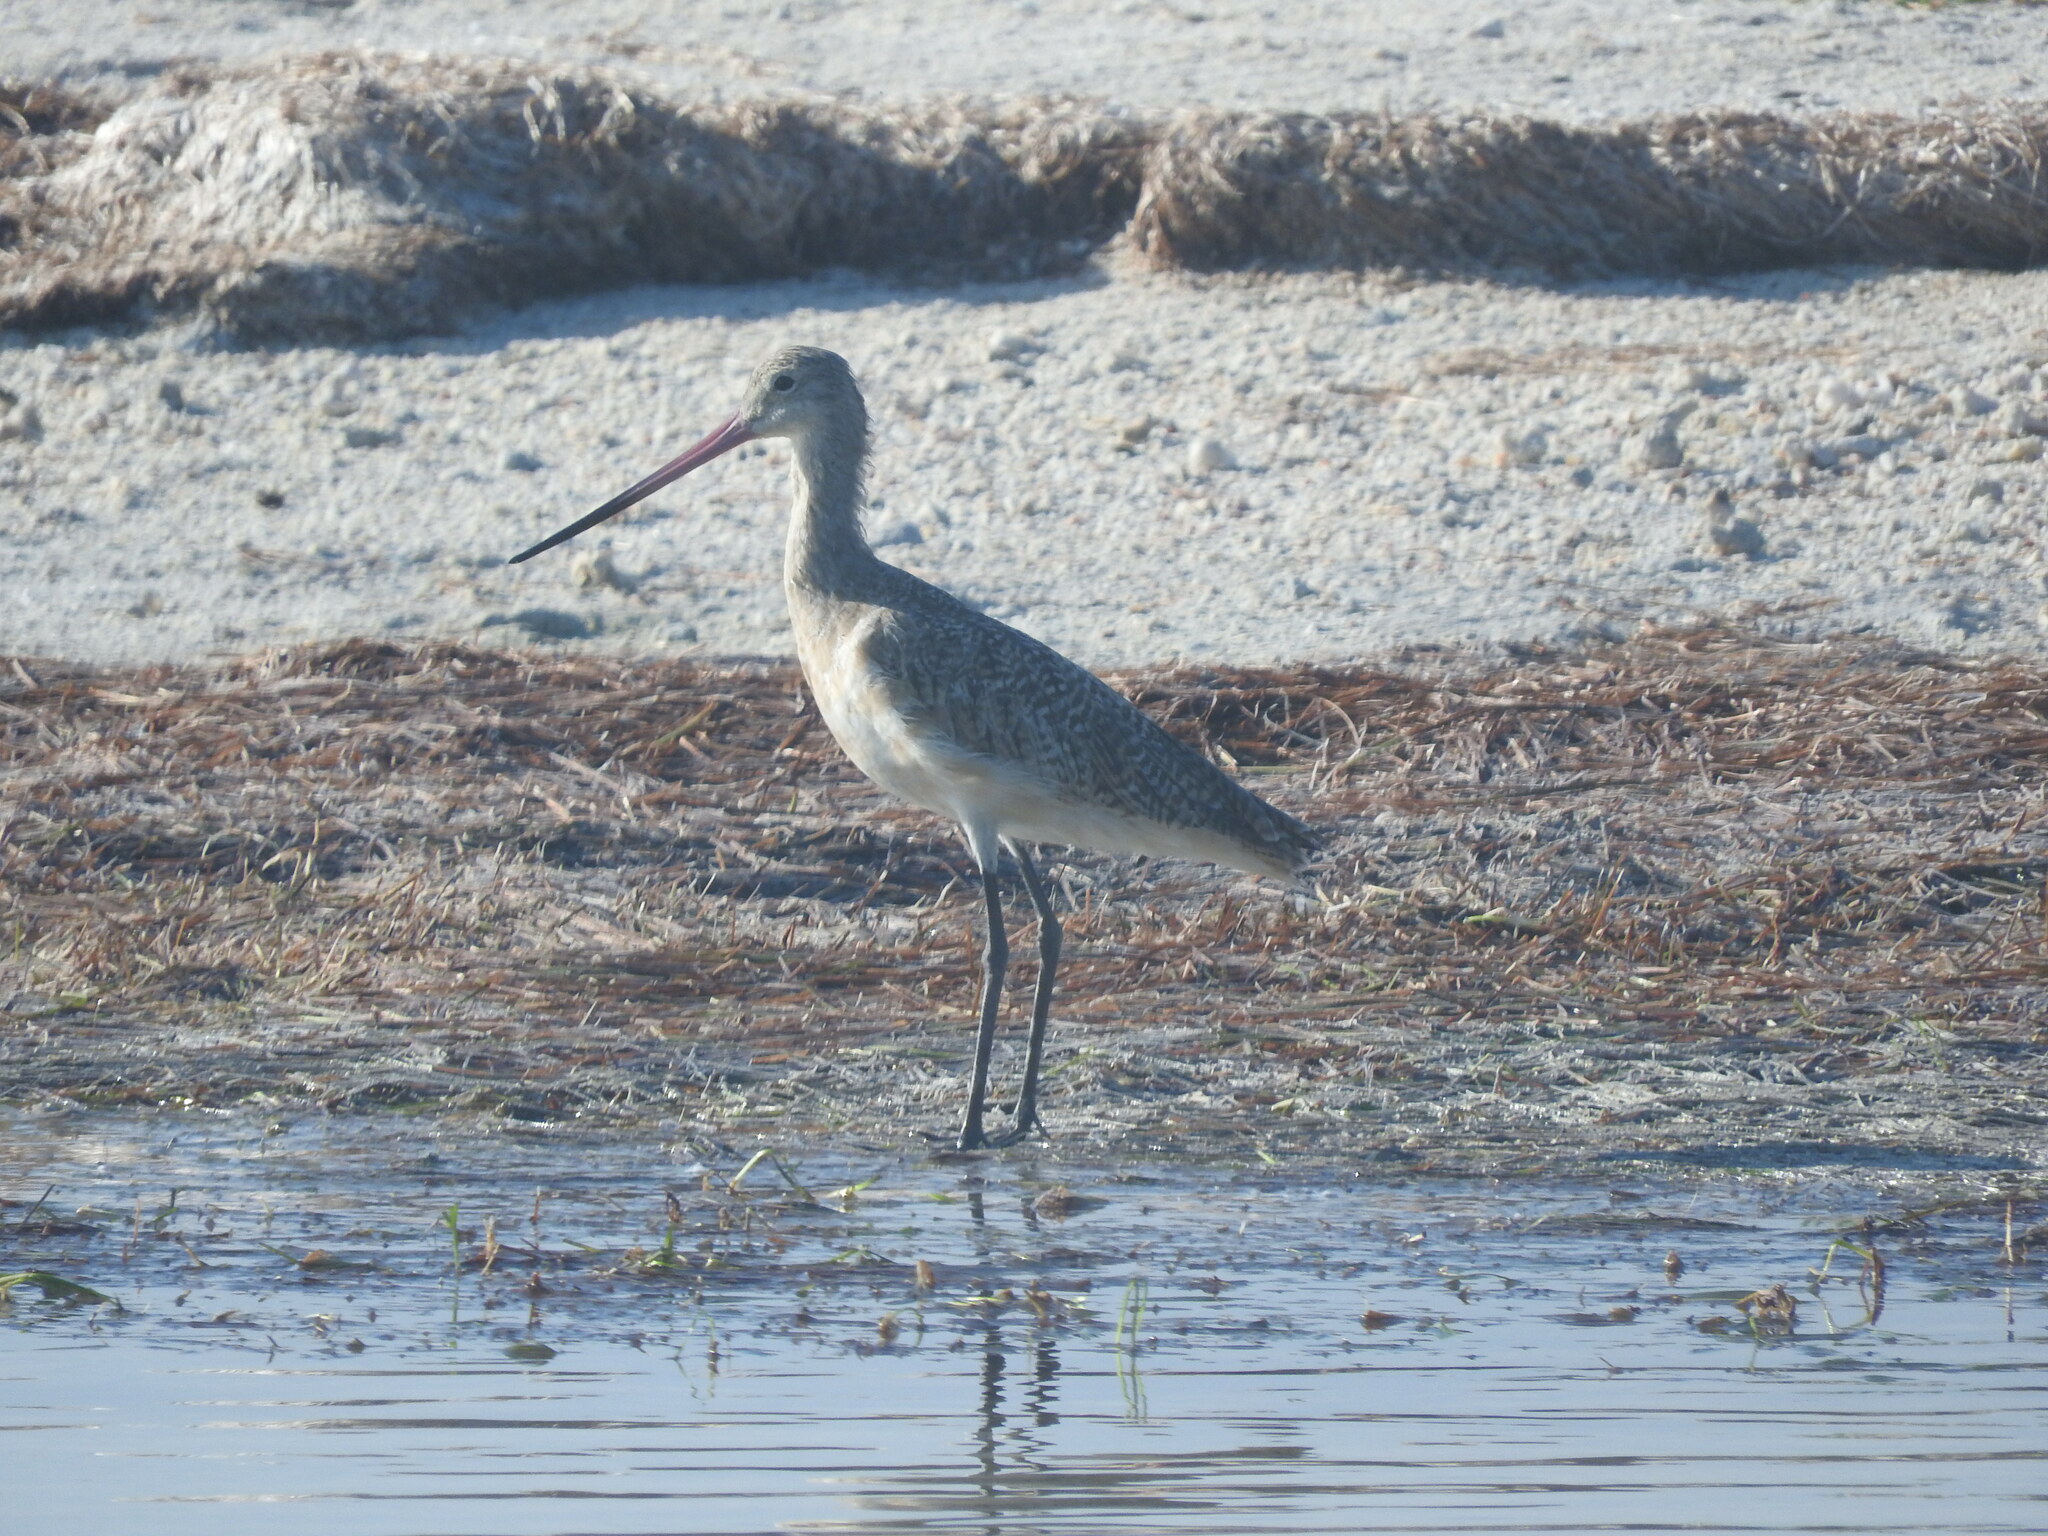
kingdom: Animalia
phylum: Chordata
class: Aves
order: Charadriiformes
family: Scolopacidae
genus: Limosa
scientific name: Limosa fedoa
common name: Marbled godwit
